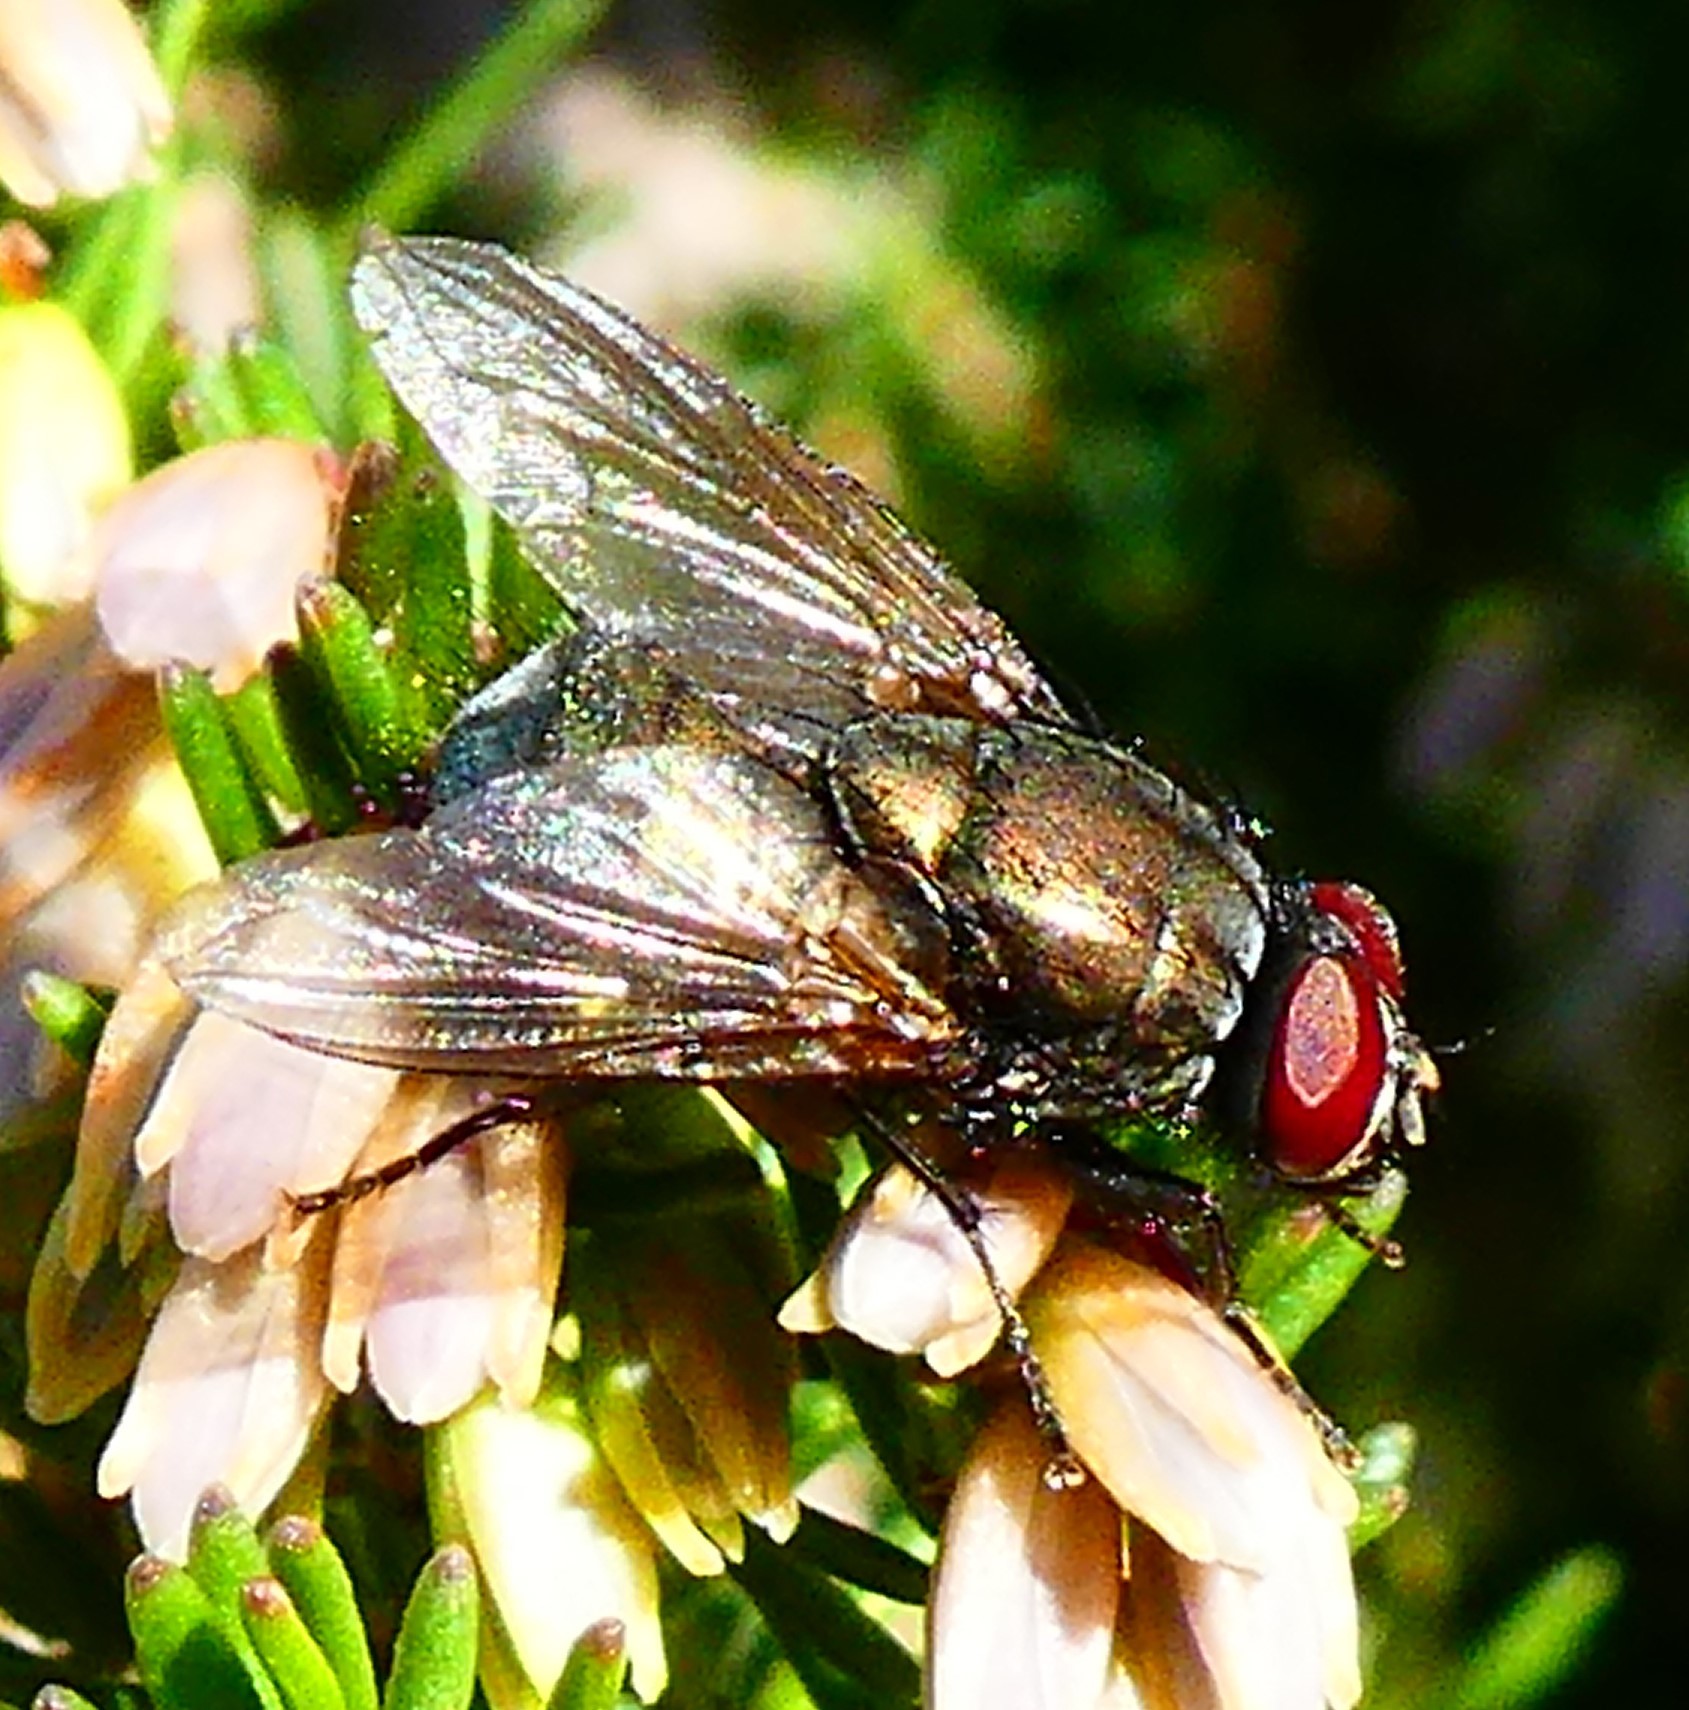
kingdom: Animalia
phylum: Arthropoda
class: Insecta
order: Diptera
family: Muscidae
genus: Dasyphora
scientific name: Dasyphora cyanella
